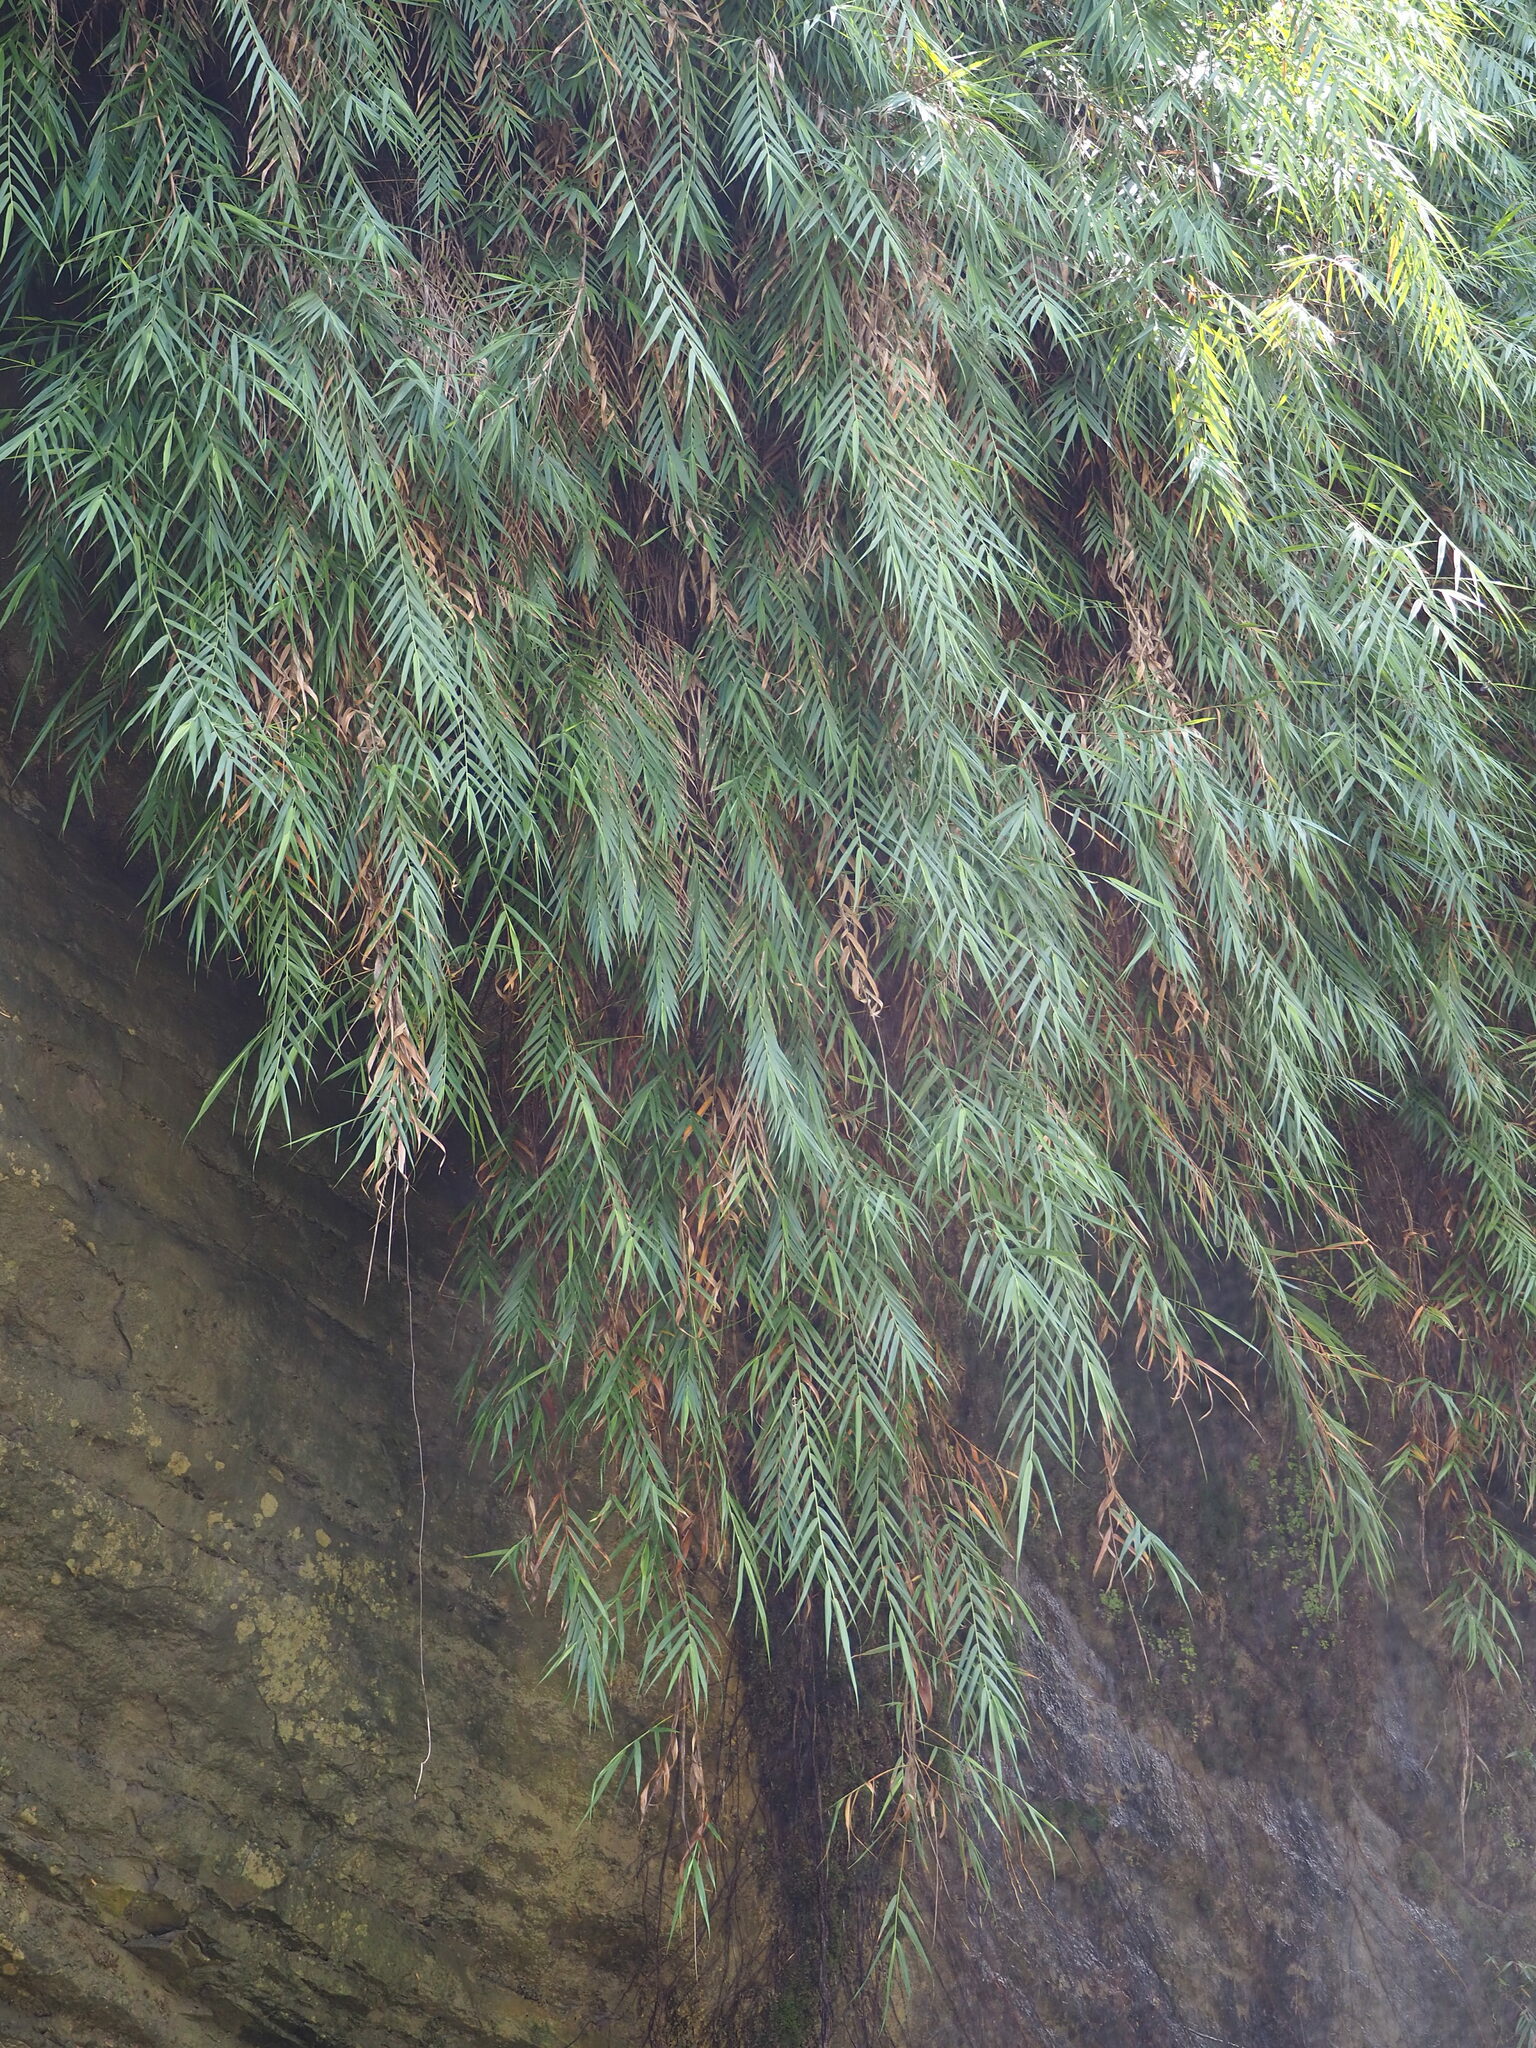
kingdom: Plantae
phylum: Tracheophyta
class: Liliopsida
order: Poales
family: Poaceae
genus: Arundo
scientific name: Arundo formosana
